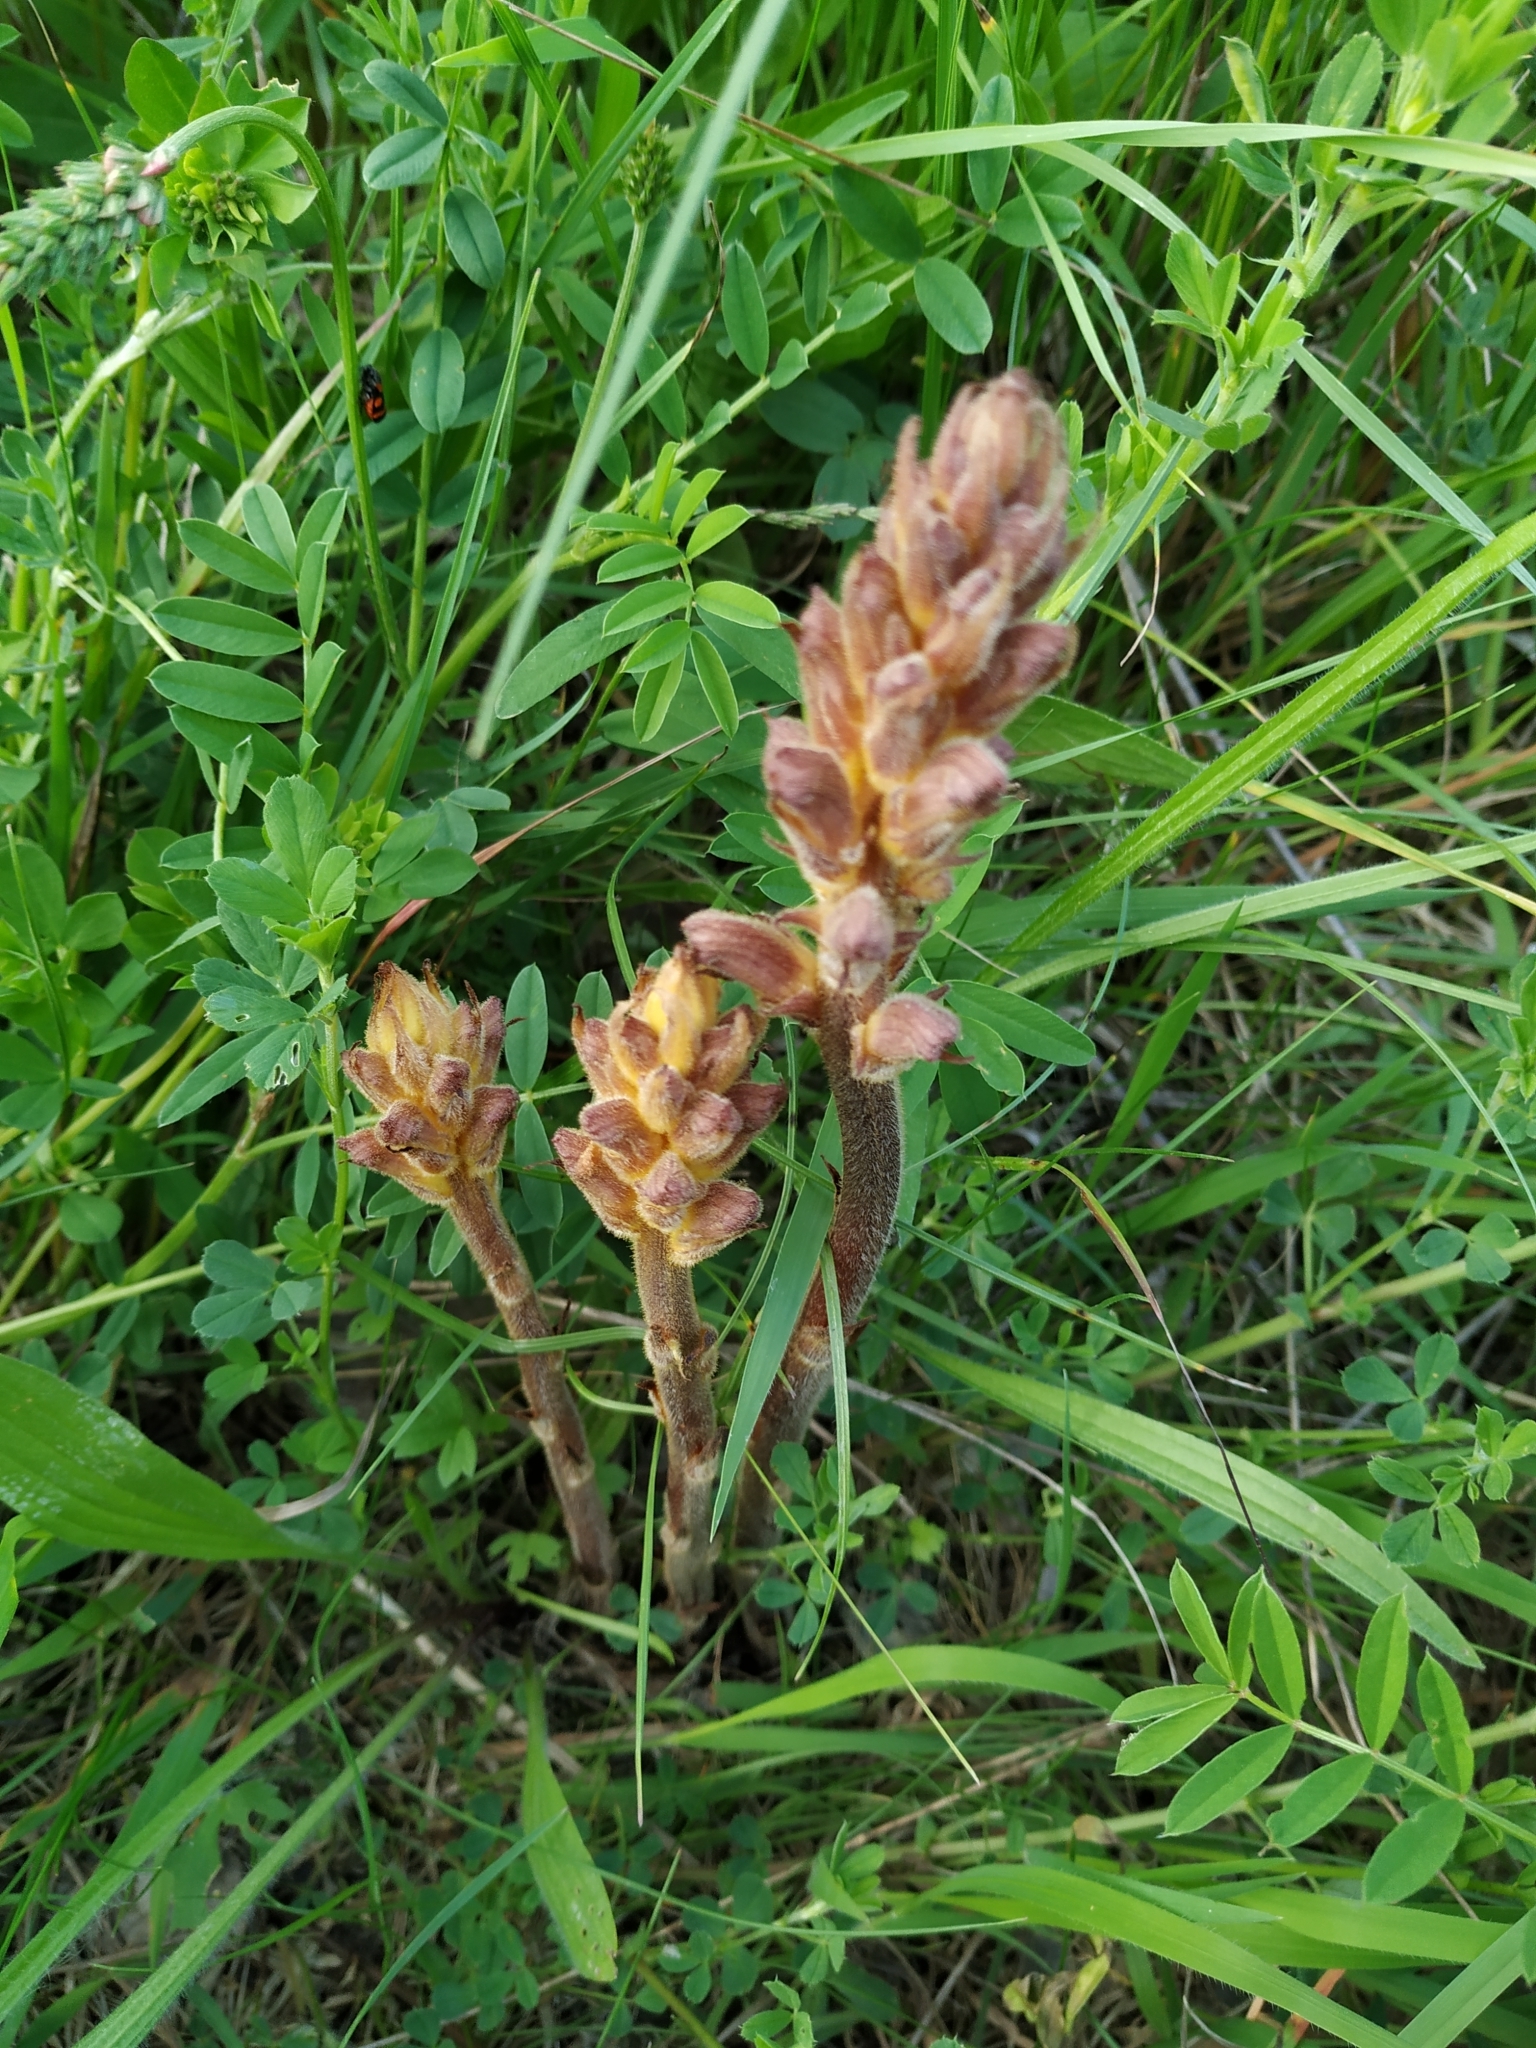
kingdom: Plantae
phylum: Tracheophyta
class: Magnoliopsida
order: Lamiales
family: Orobanchaceae
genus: Orobanche
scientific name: Orobanche lutea
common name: Yellow broomrape
